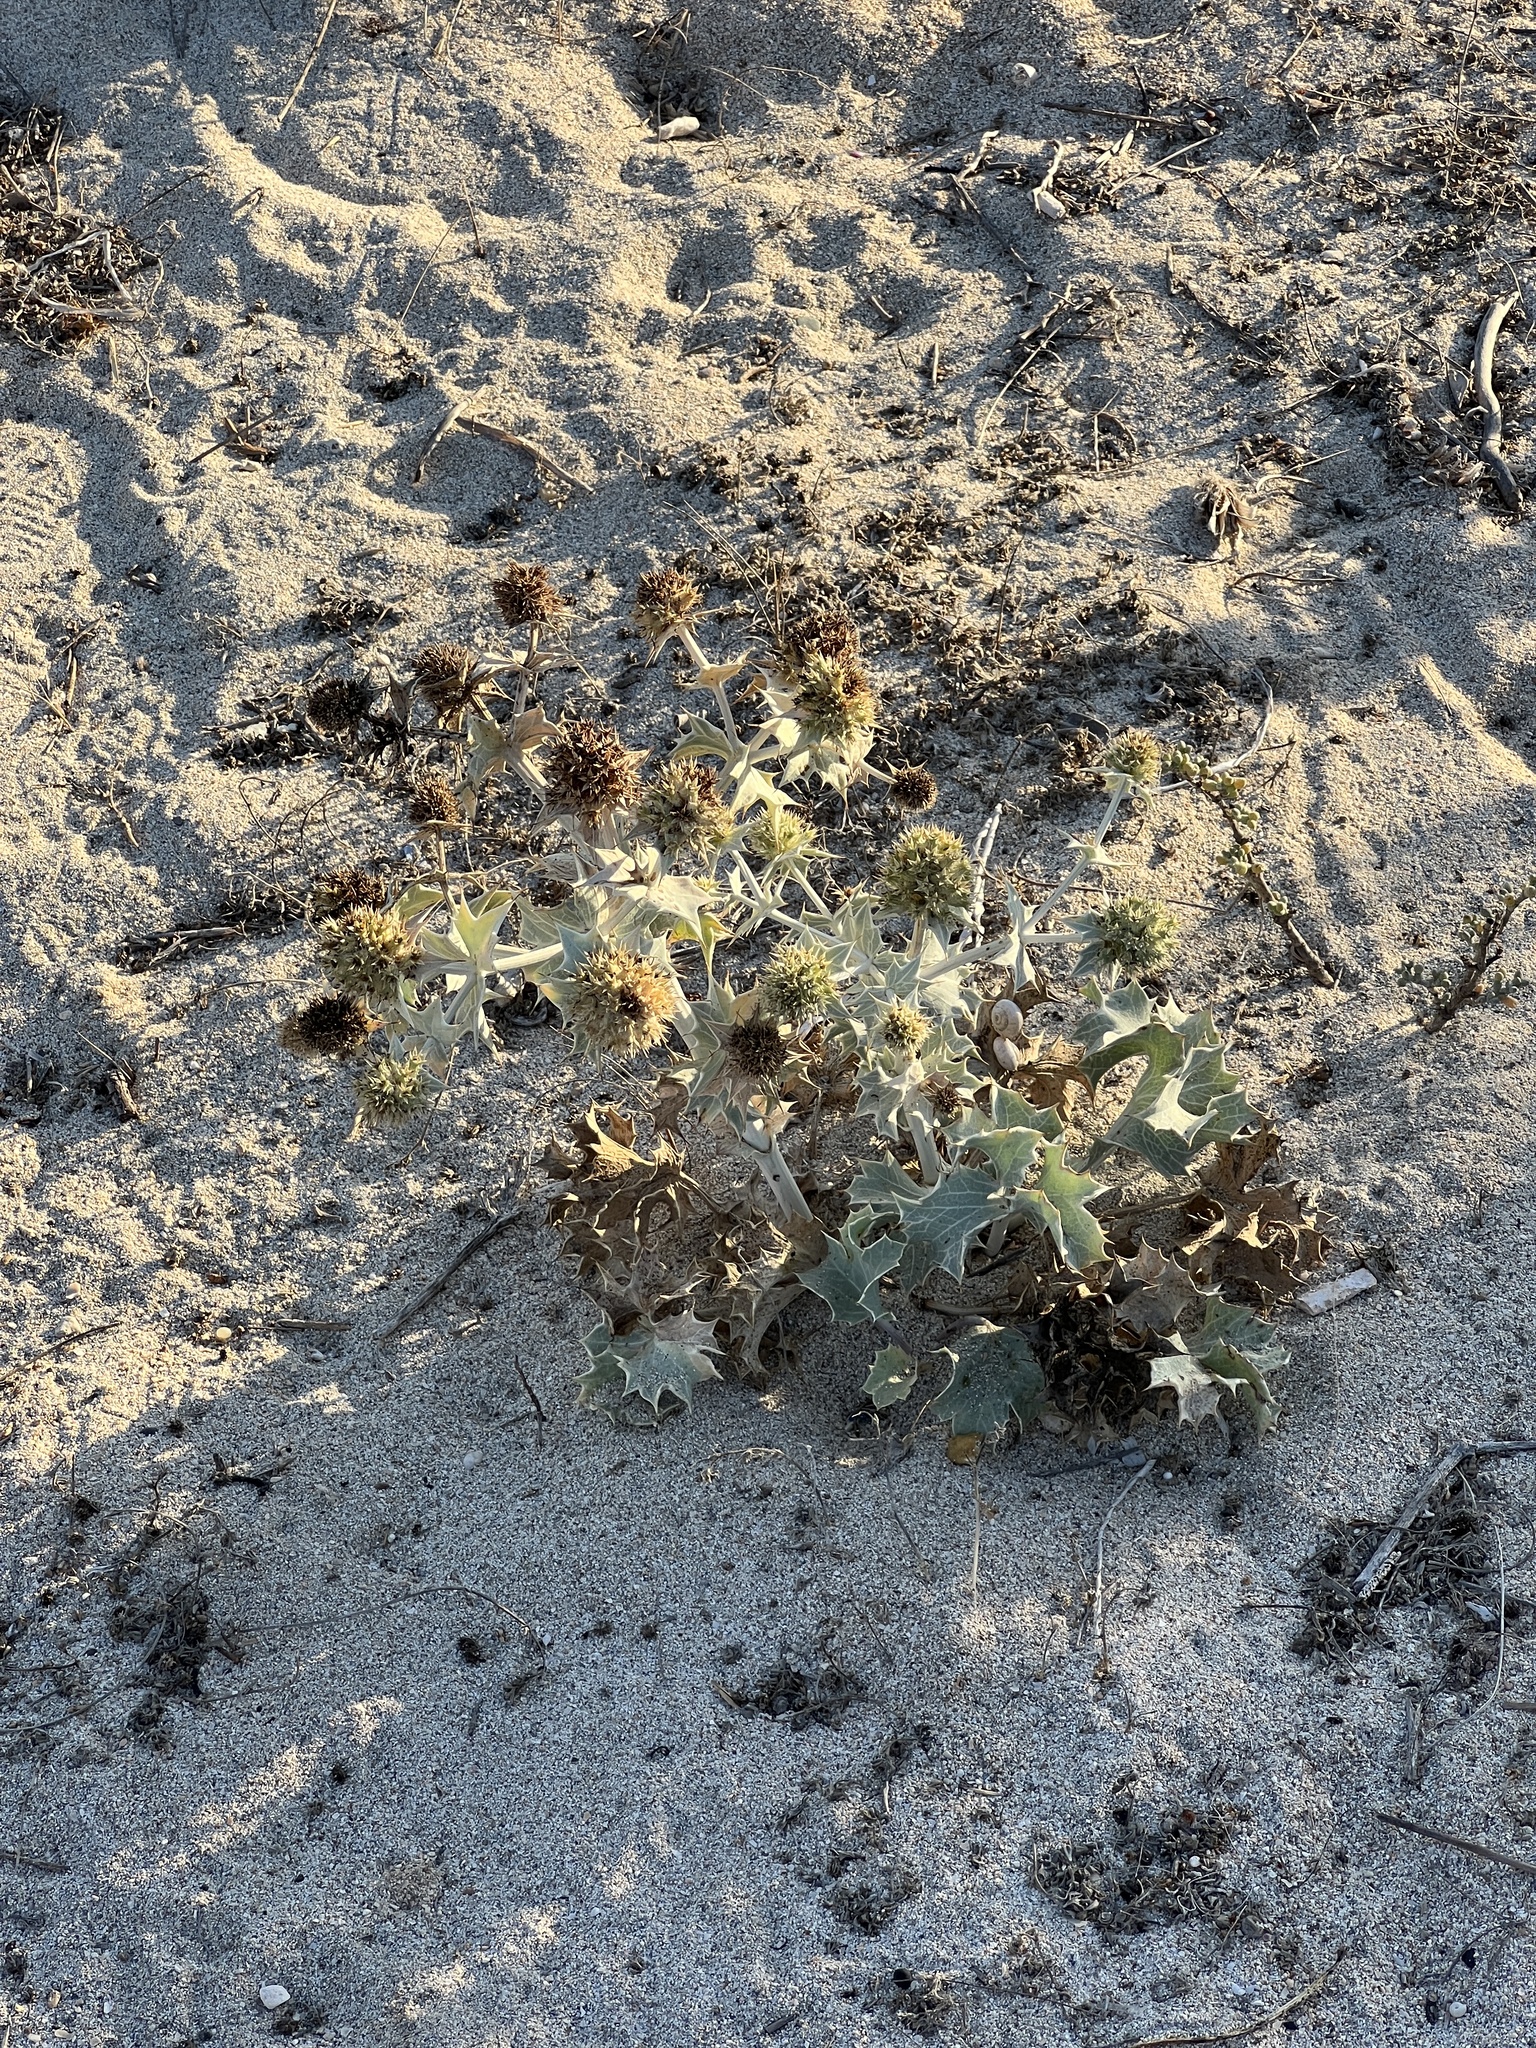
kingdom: Plantae
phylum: Tracheophyta
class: Magnoliopsida
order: Apiales
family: Apiaceae
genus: Eryngium
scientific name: Eryngium maritimum
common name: Sea-holly
